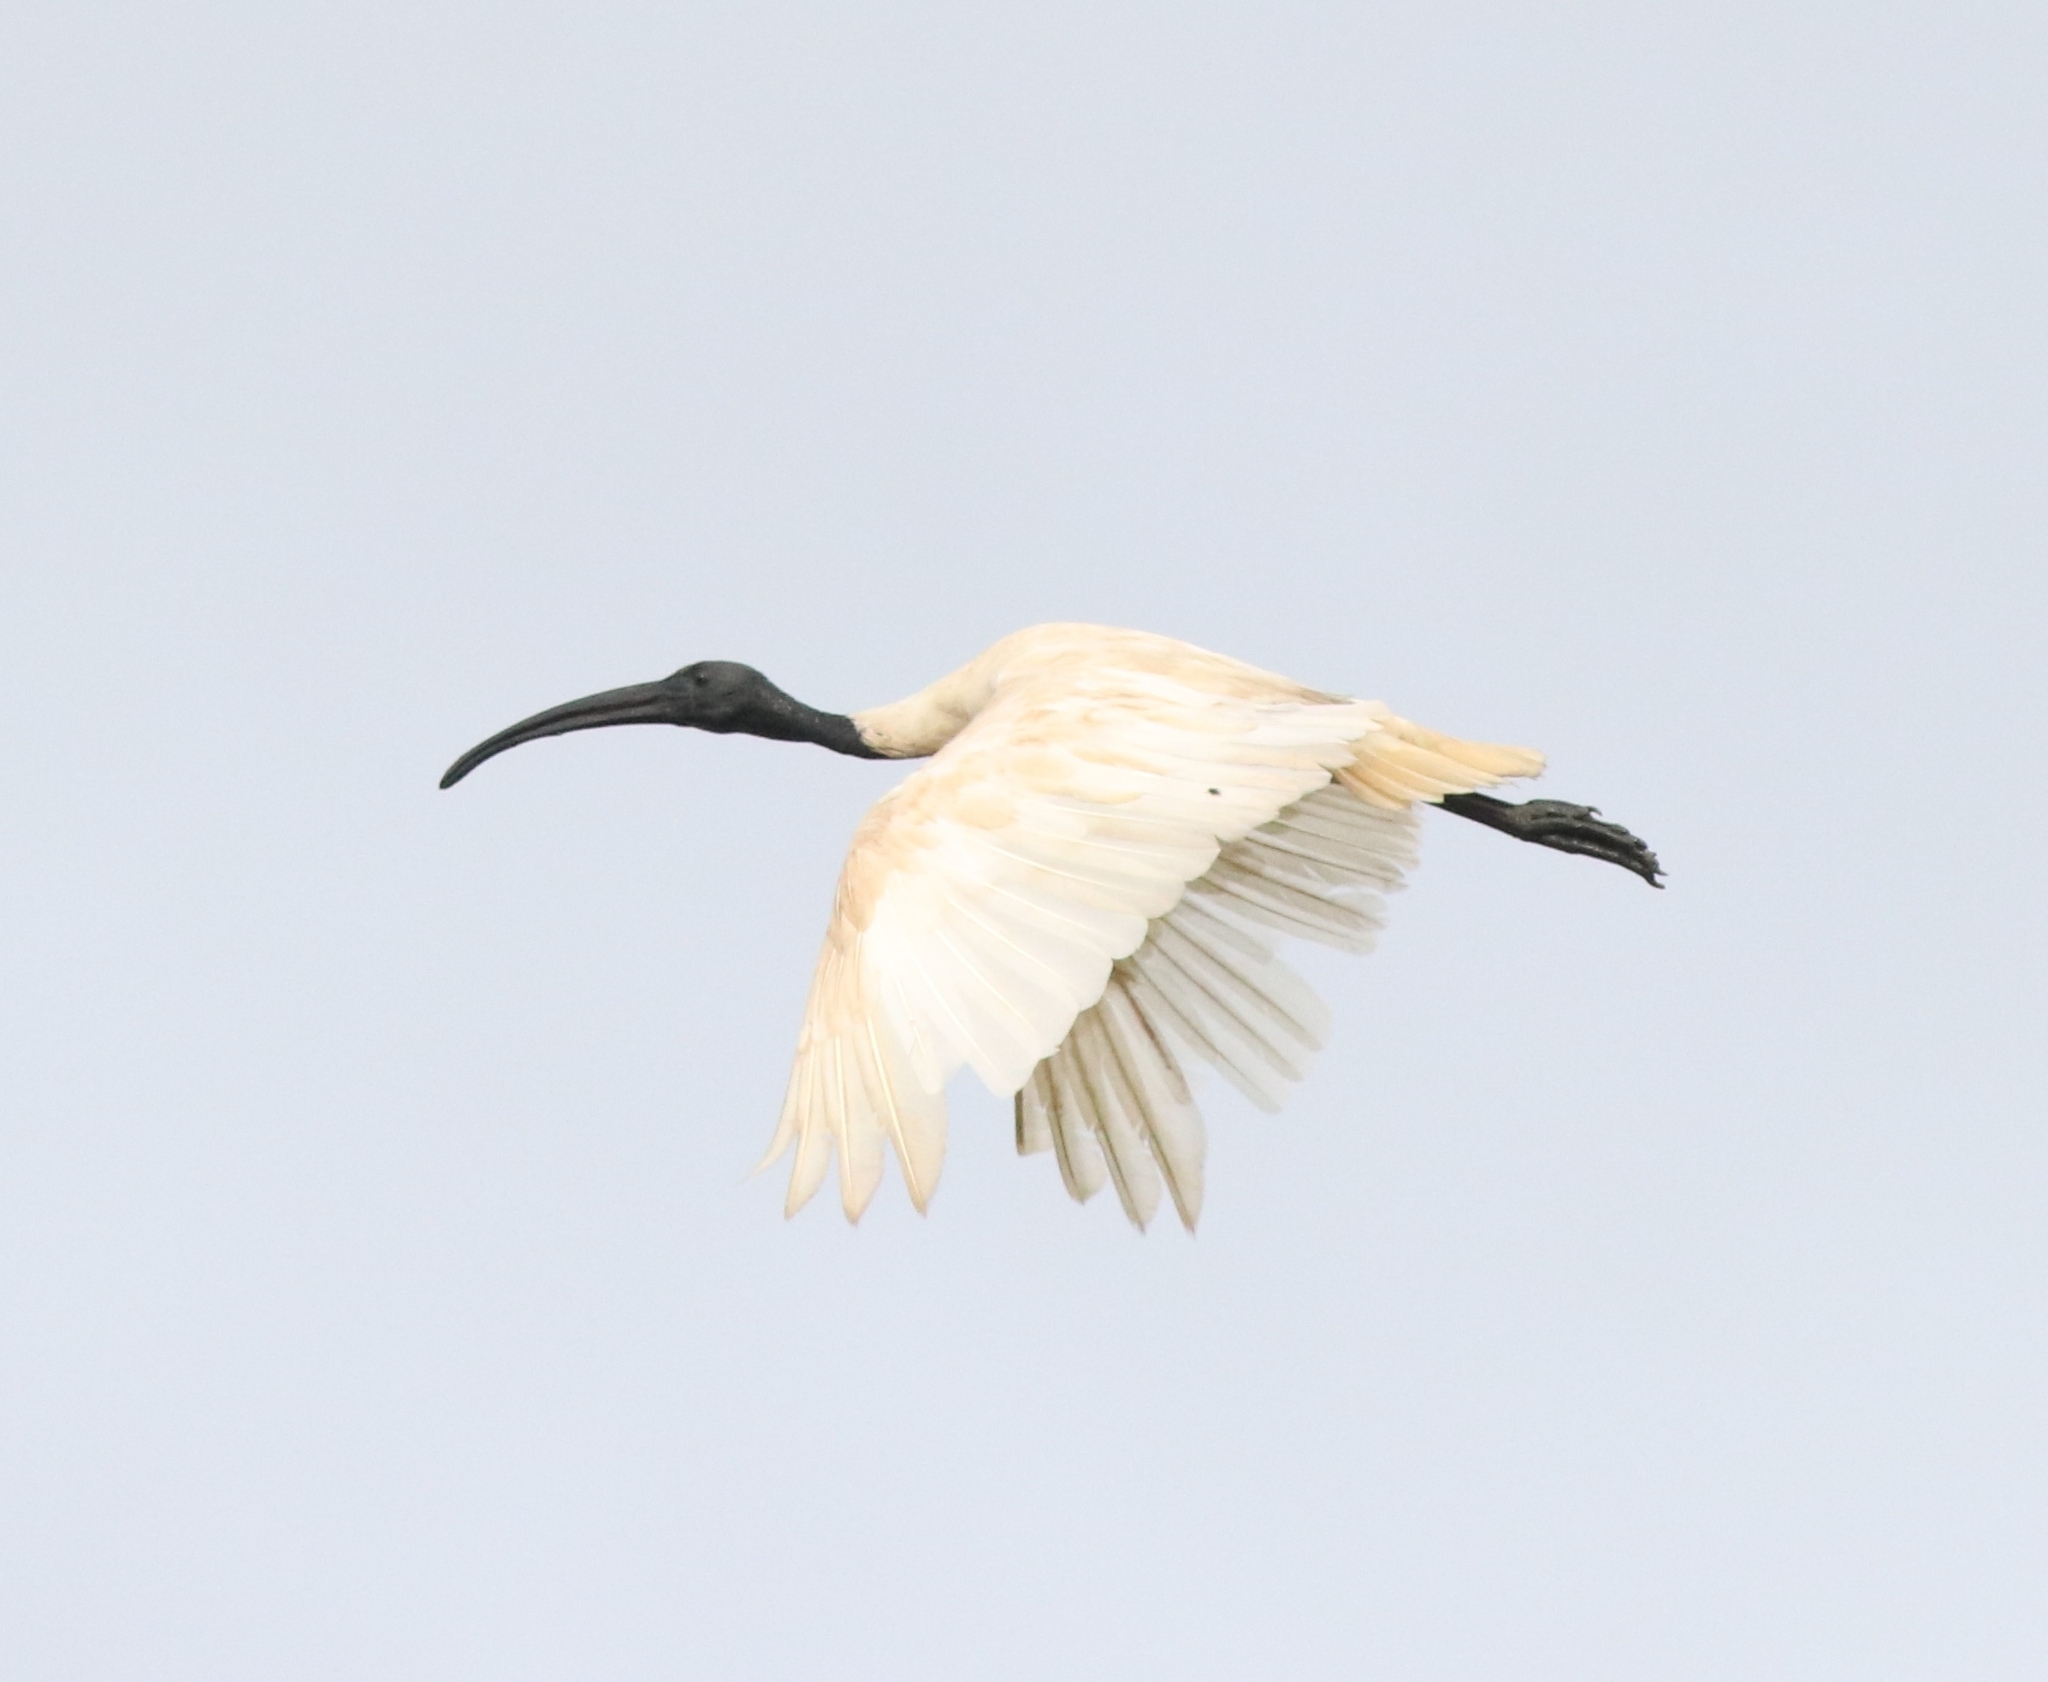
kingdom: Animalia
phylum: Chordata
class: Aves
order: Pelecaniformes
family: Threskiornithidae
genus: Threskiornis
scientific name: Threskiornis melanocephalus
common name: Black-headed ibis
